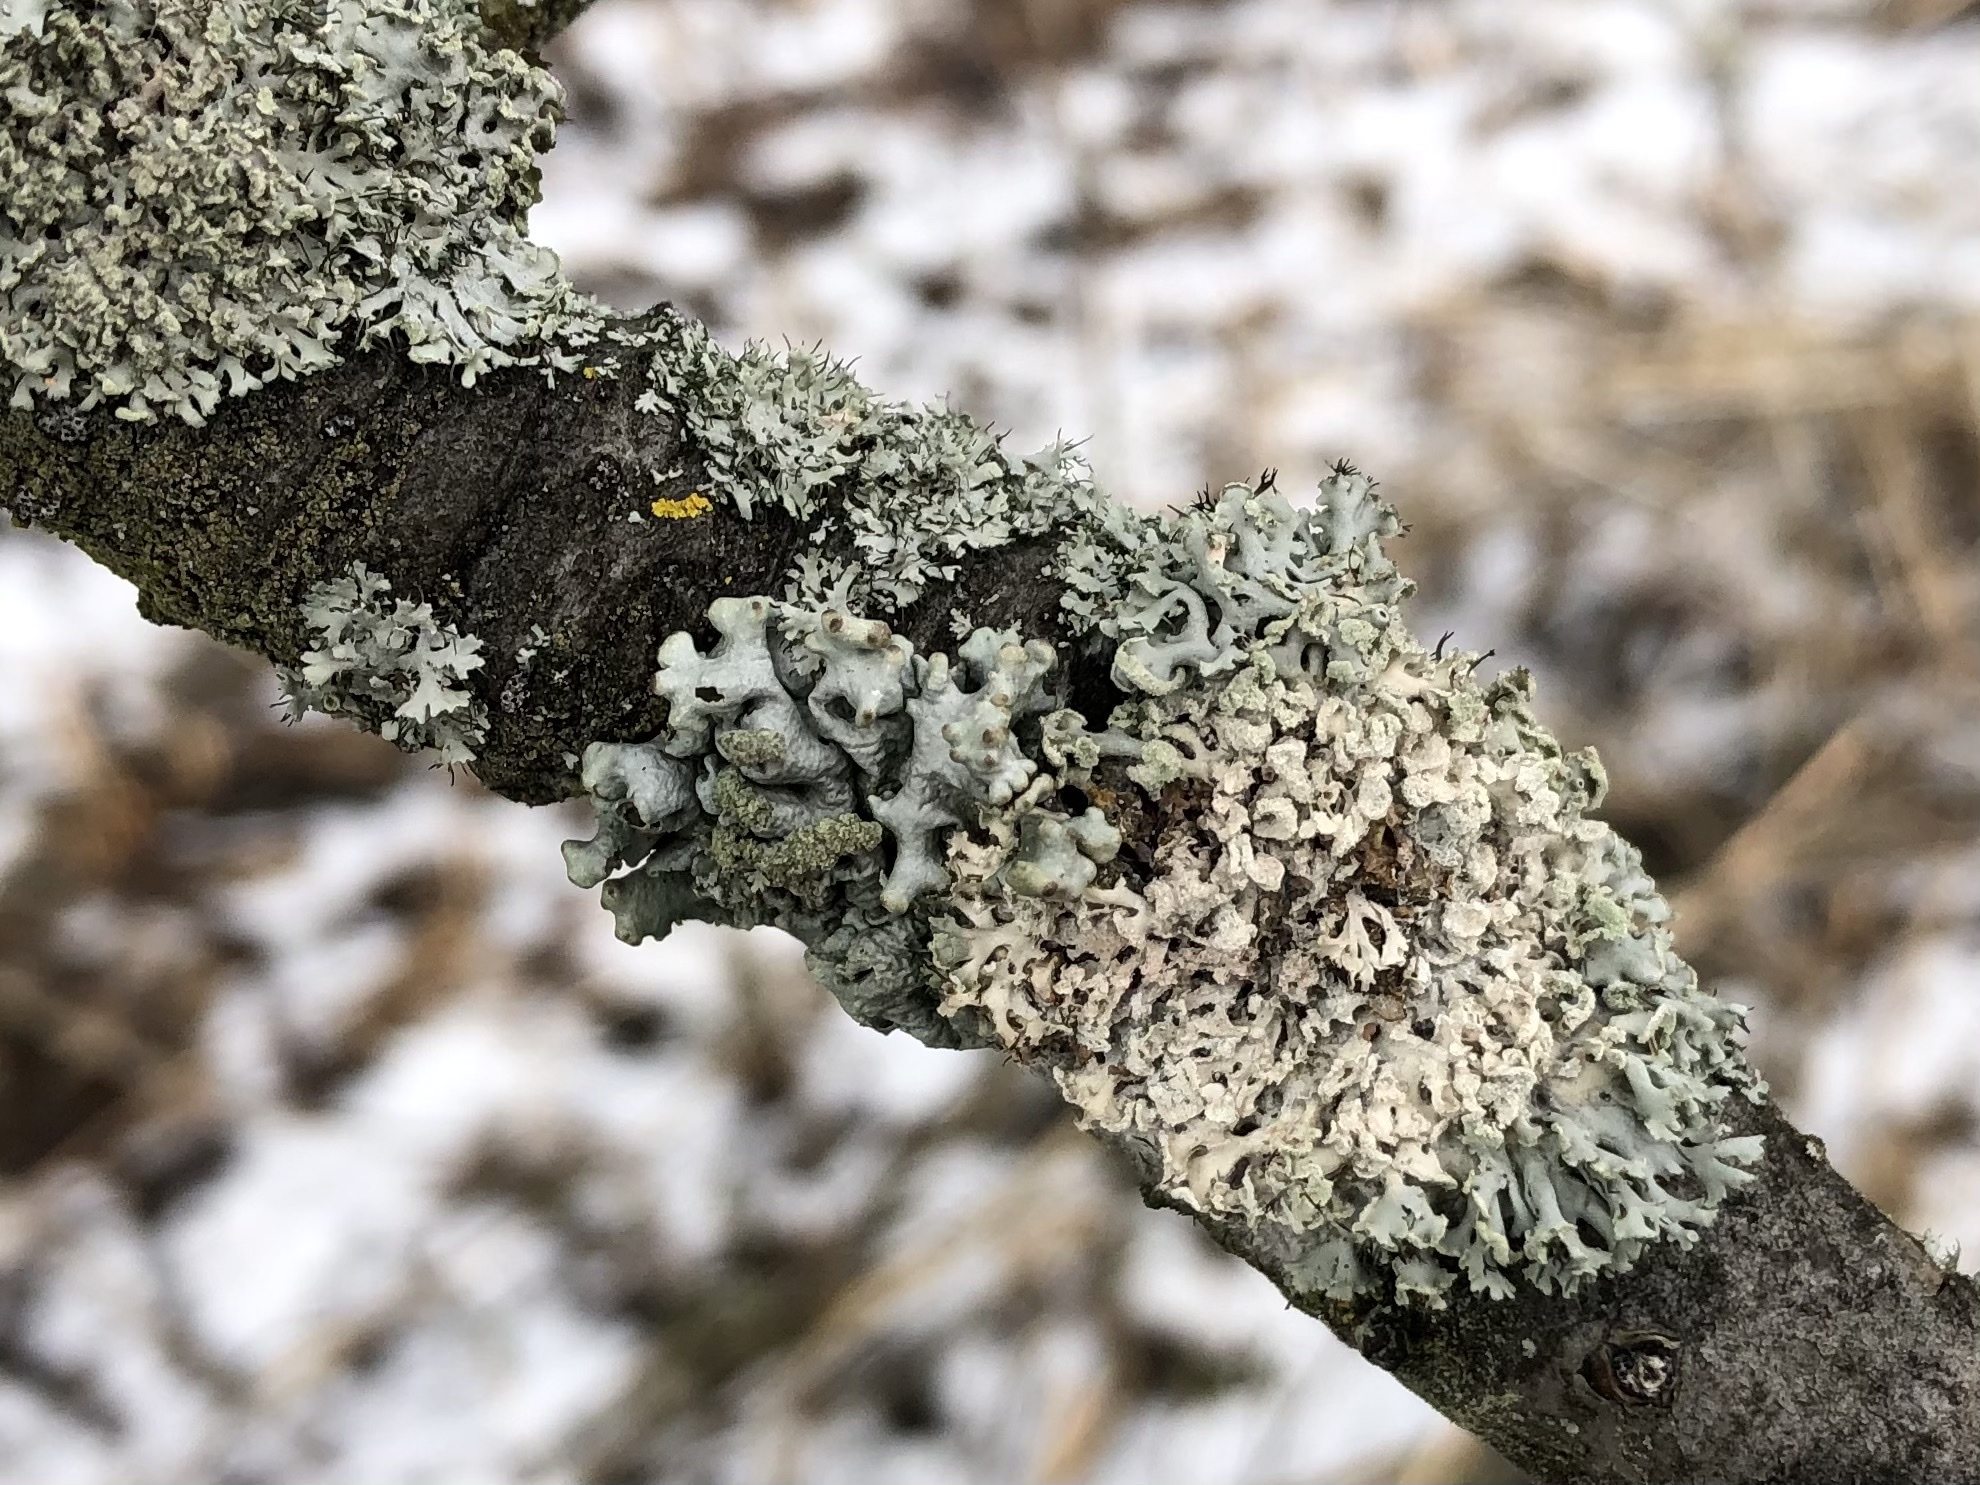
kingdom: Fungi
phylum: Ascomycota
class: Lecanoromycetes
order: Lecanorales
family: Parmeliaceae
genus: Hypogymnia
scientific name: Hypogymnia tubulosa
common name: Powder-headed tube lichen
